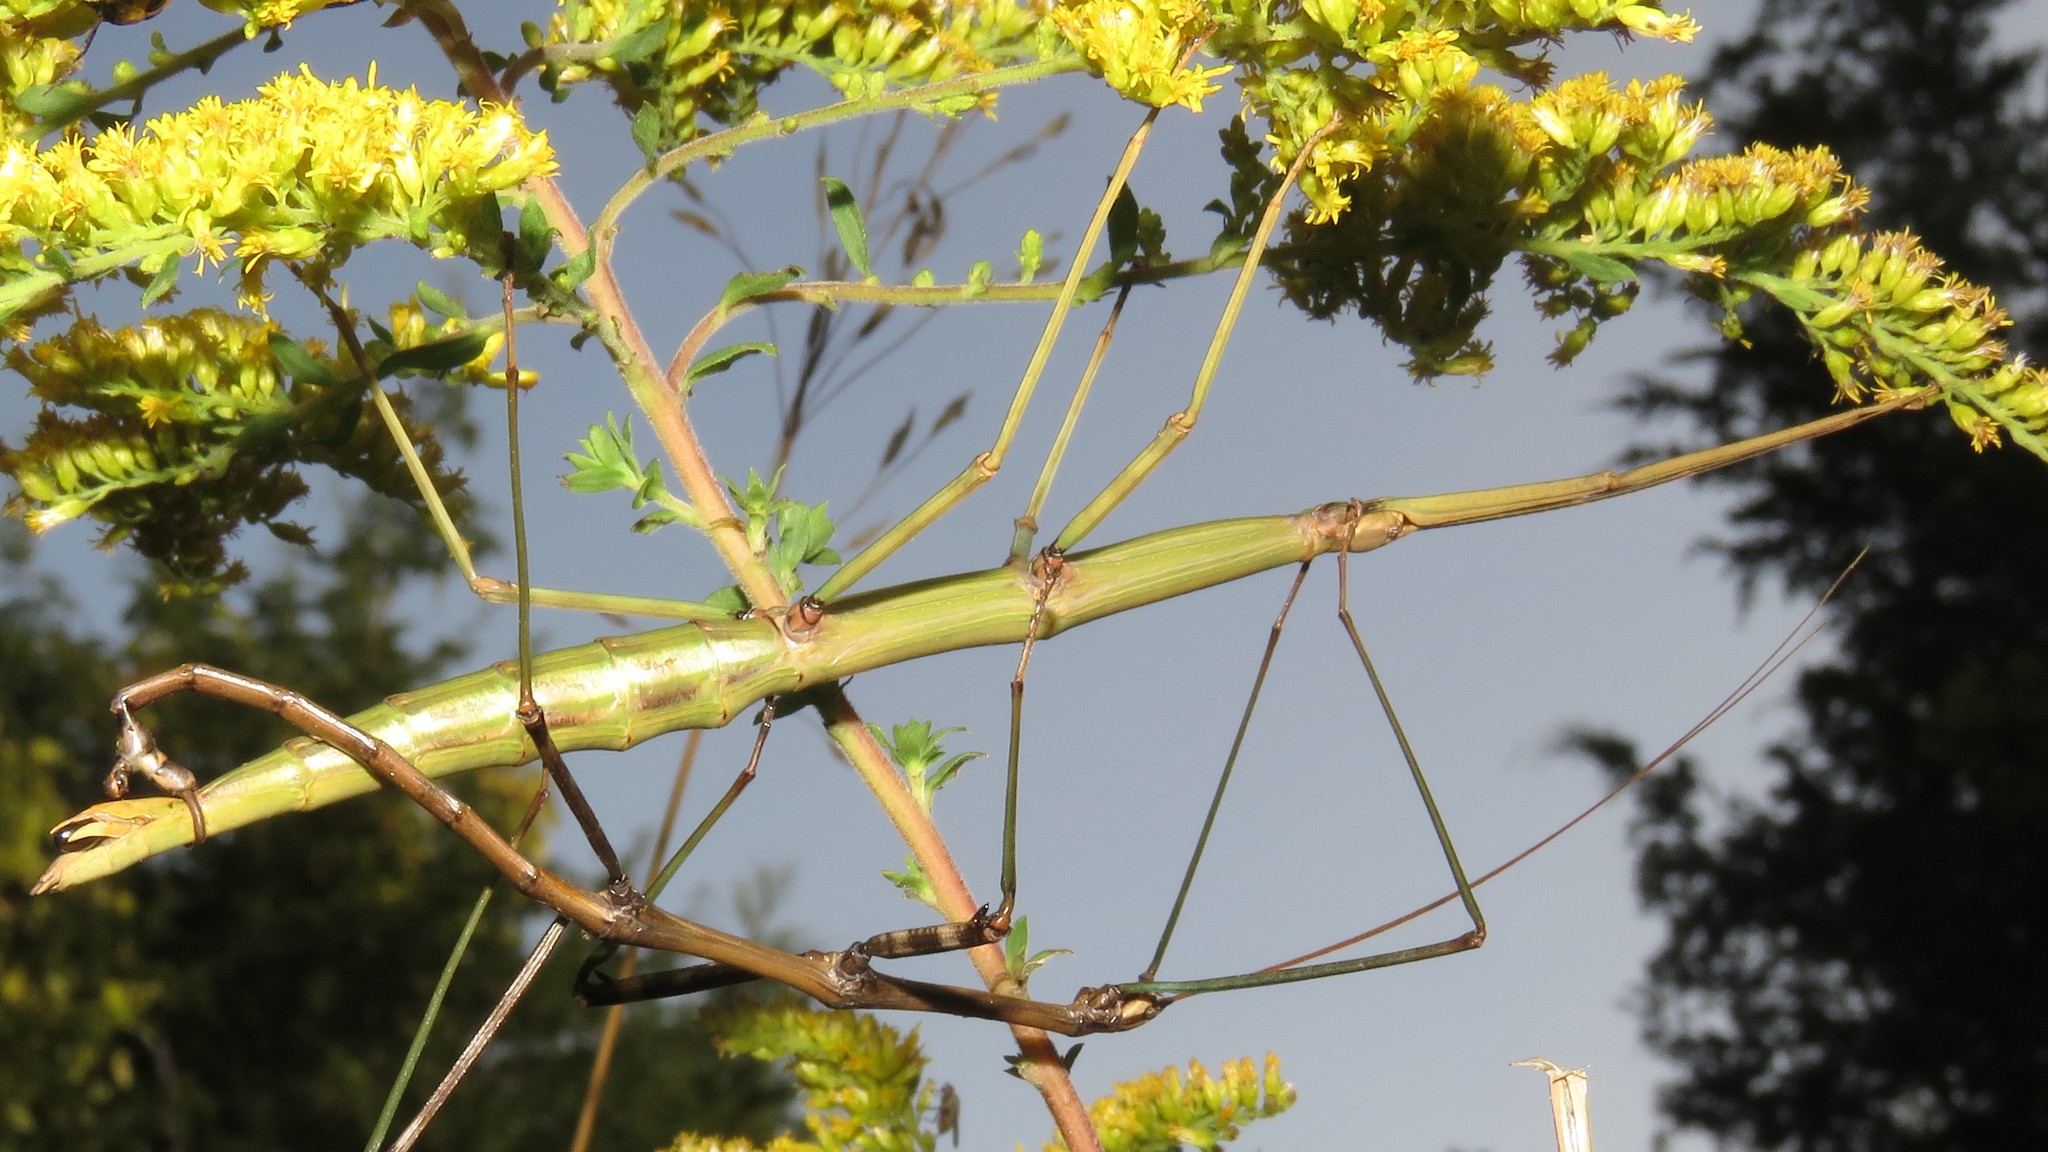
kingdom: Animalia
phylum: Arthropoda
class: Insecta
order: Phasmida
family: Diapheromeridae
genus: Diapheromera
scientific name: Diapheromera femorata
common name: Common american walkingstick
